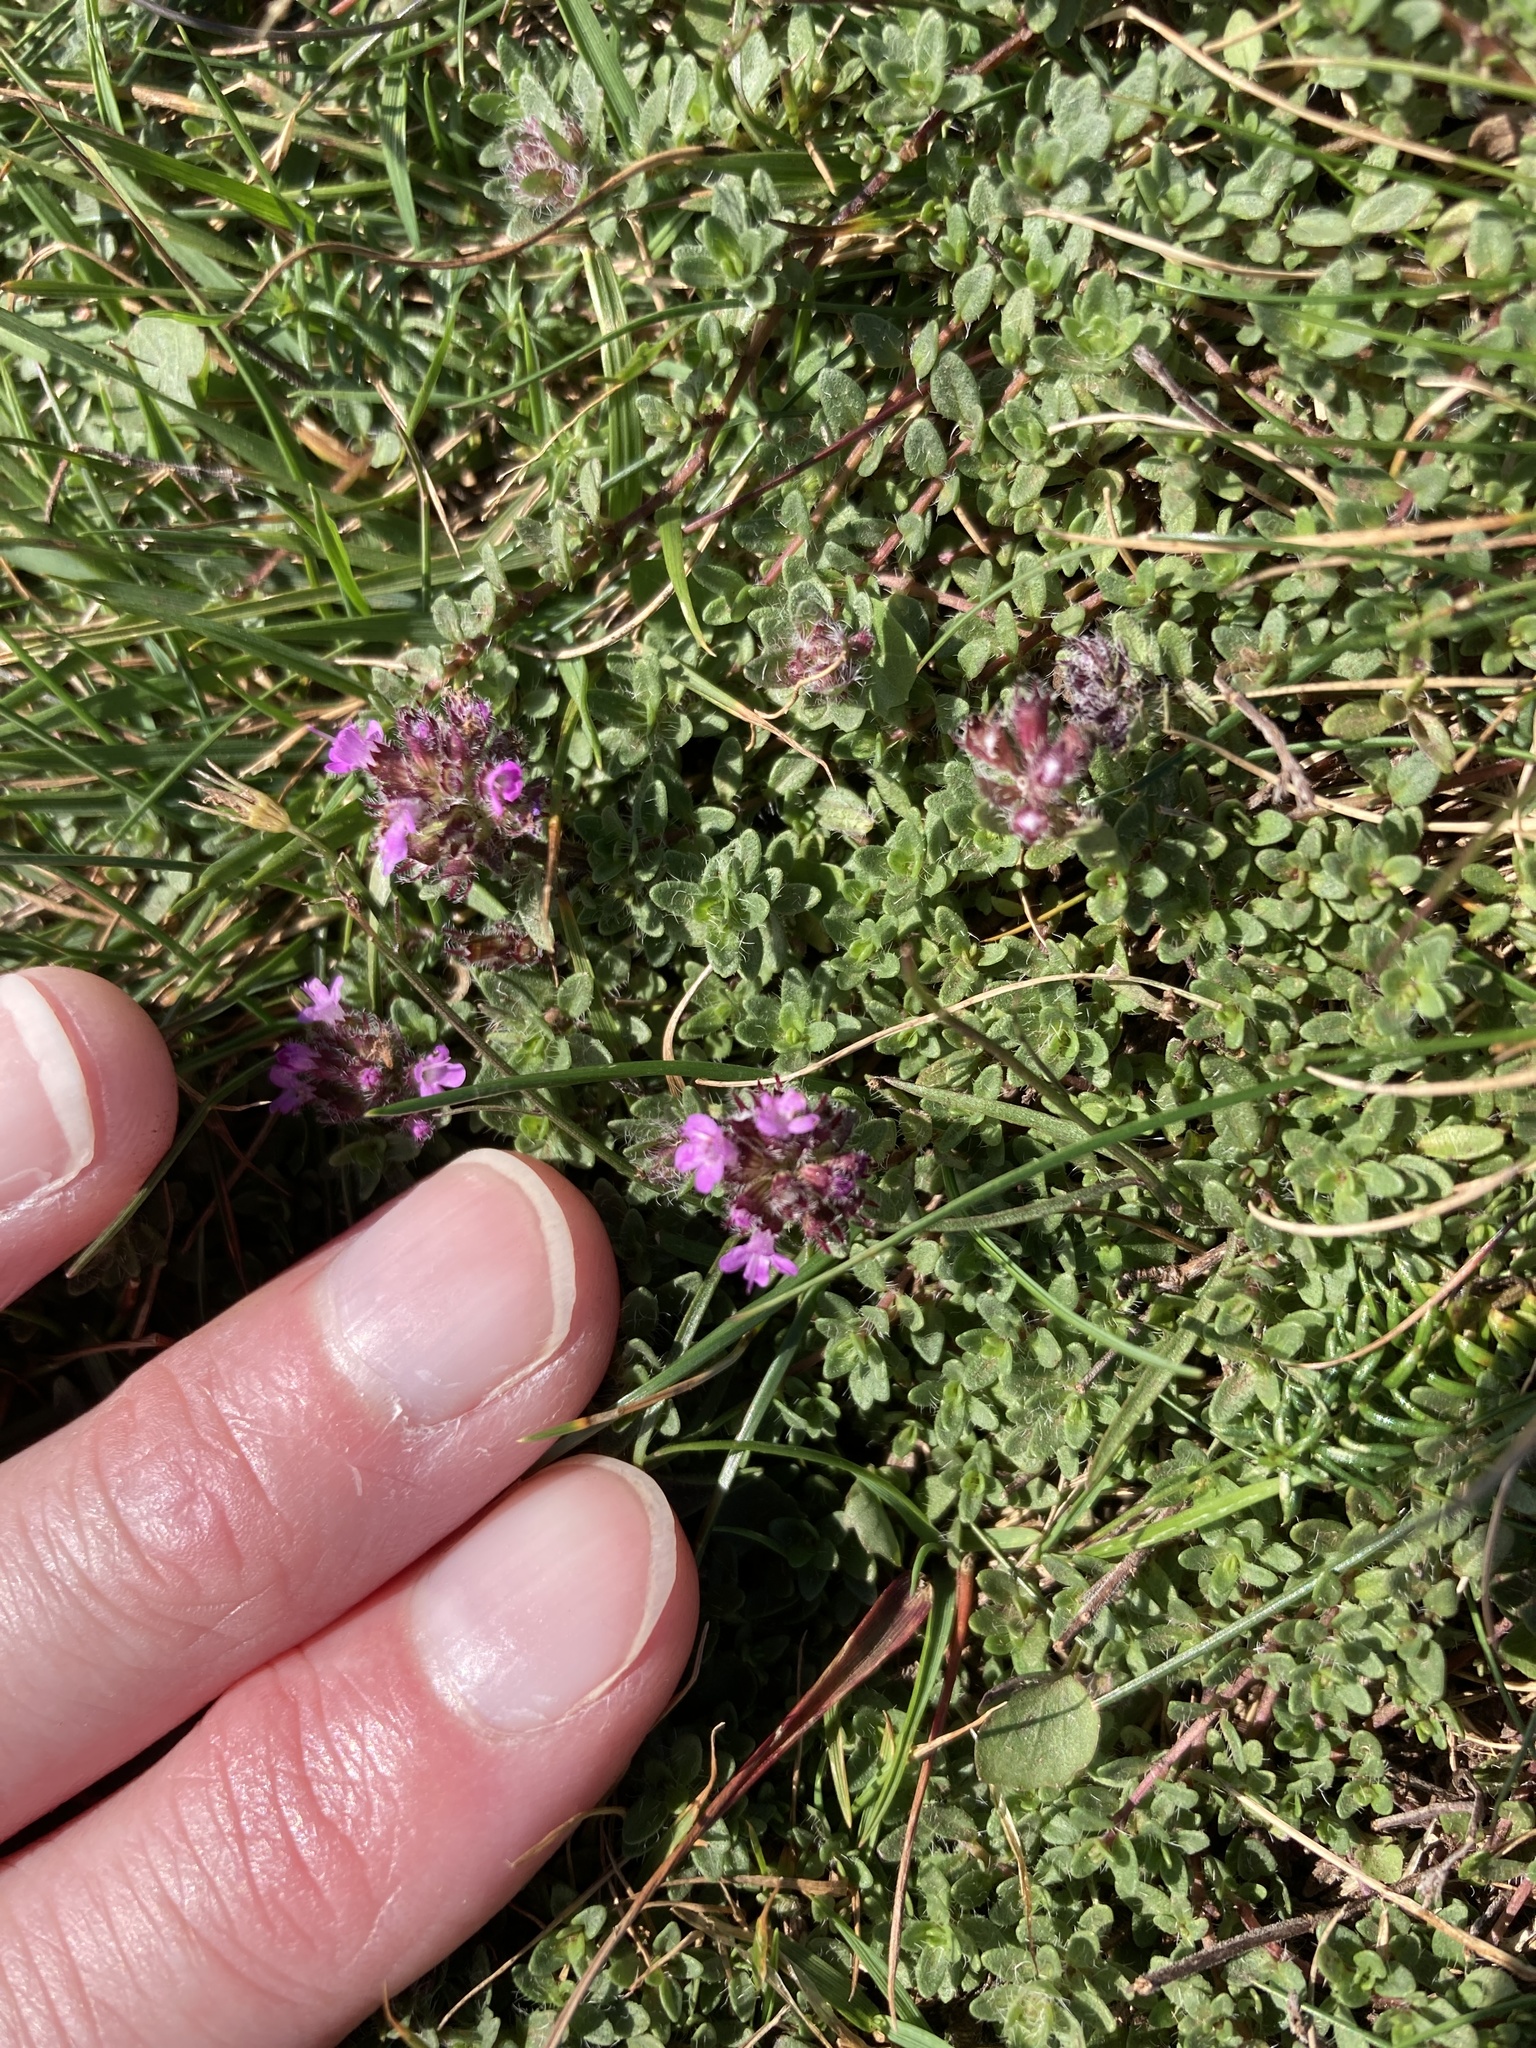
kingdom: Plantae
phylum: Tracheophyta
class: Magnoliopsida
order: Lamiales
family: Lamiaceae
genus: Thymus
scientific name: Thymus praecox
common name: Wild thyme
